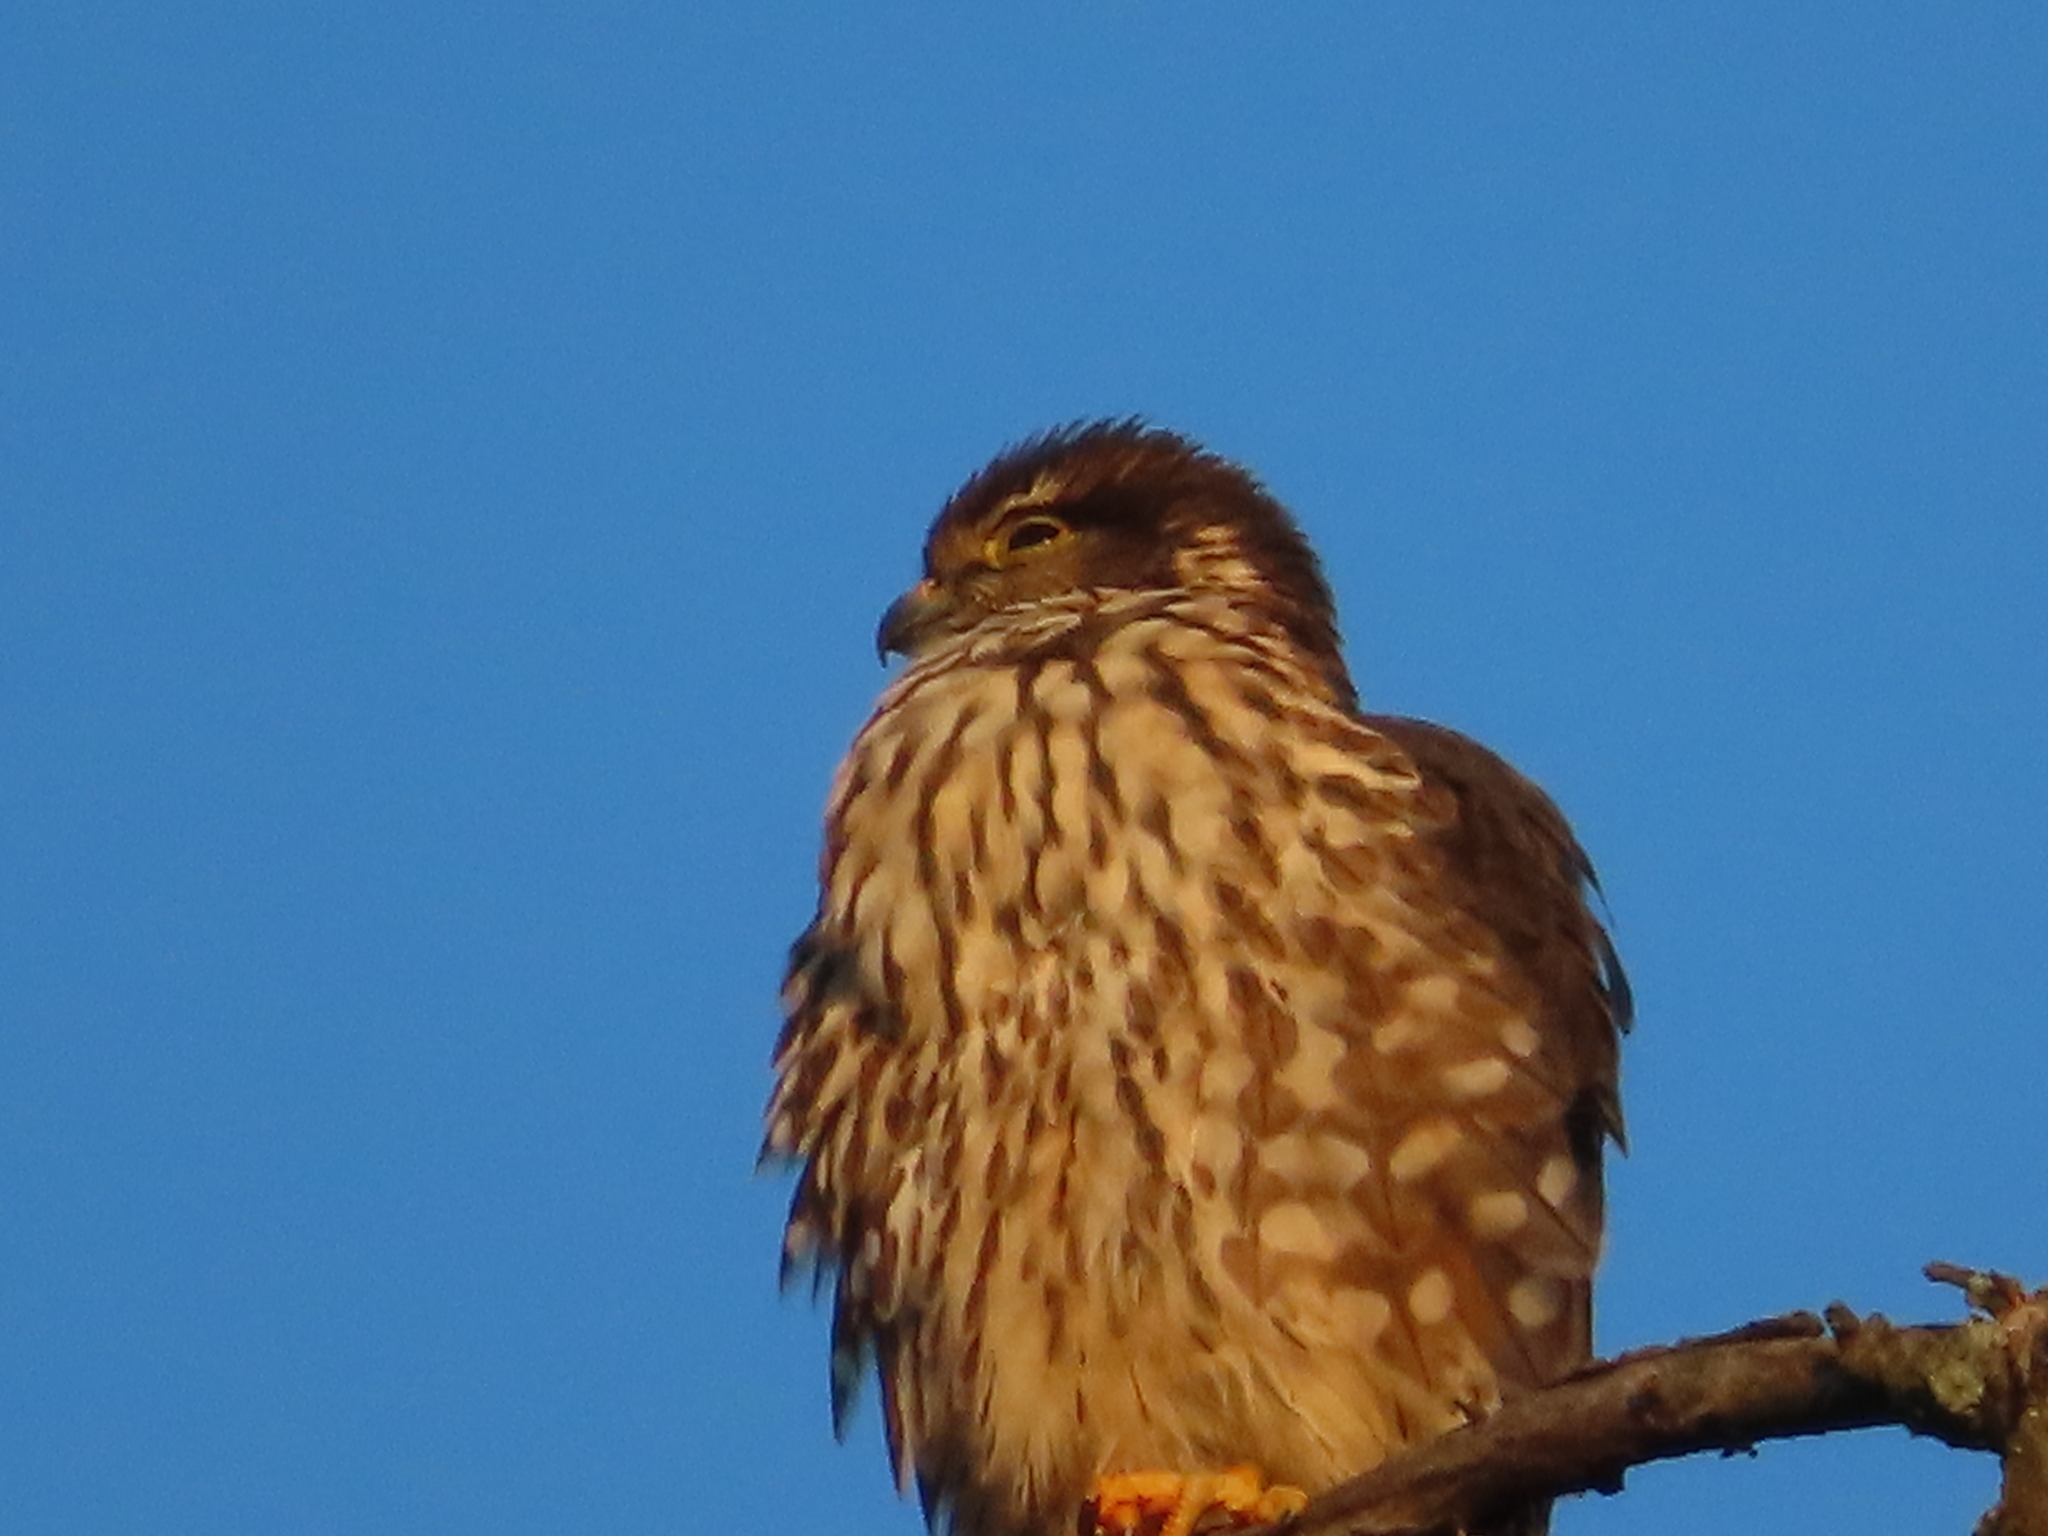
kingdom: Animalia
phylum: Chordata
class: Aves
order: Falconiformes
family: Falconidae
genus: Falco
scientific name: Falco columbarius
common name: Merlin
